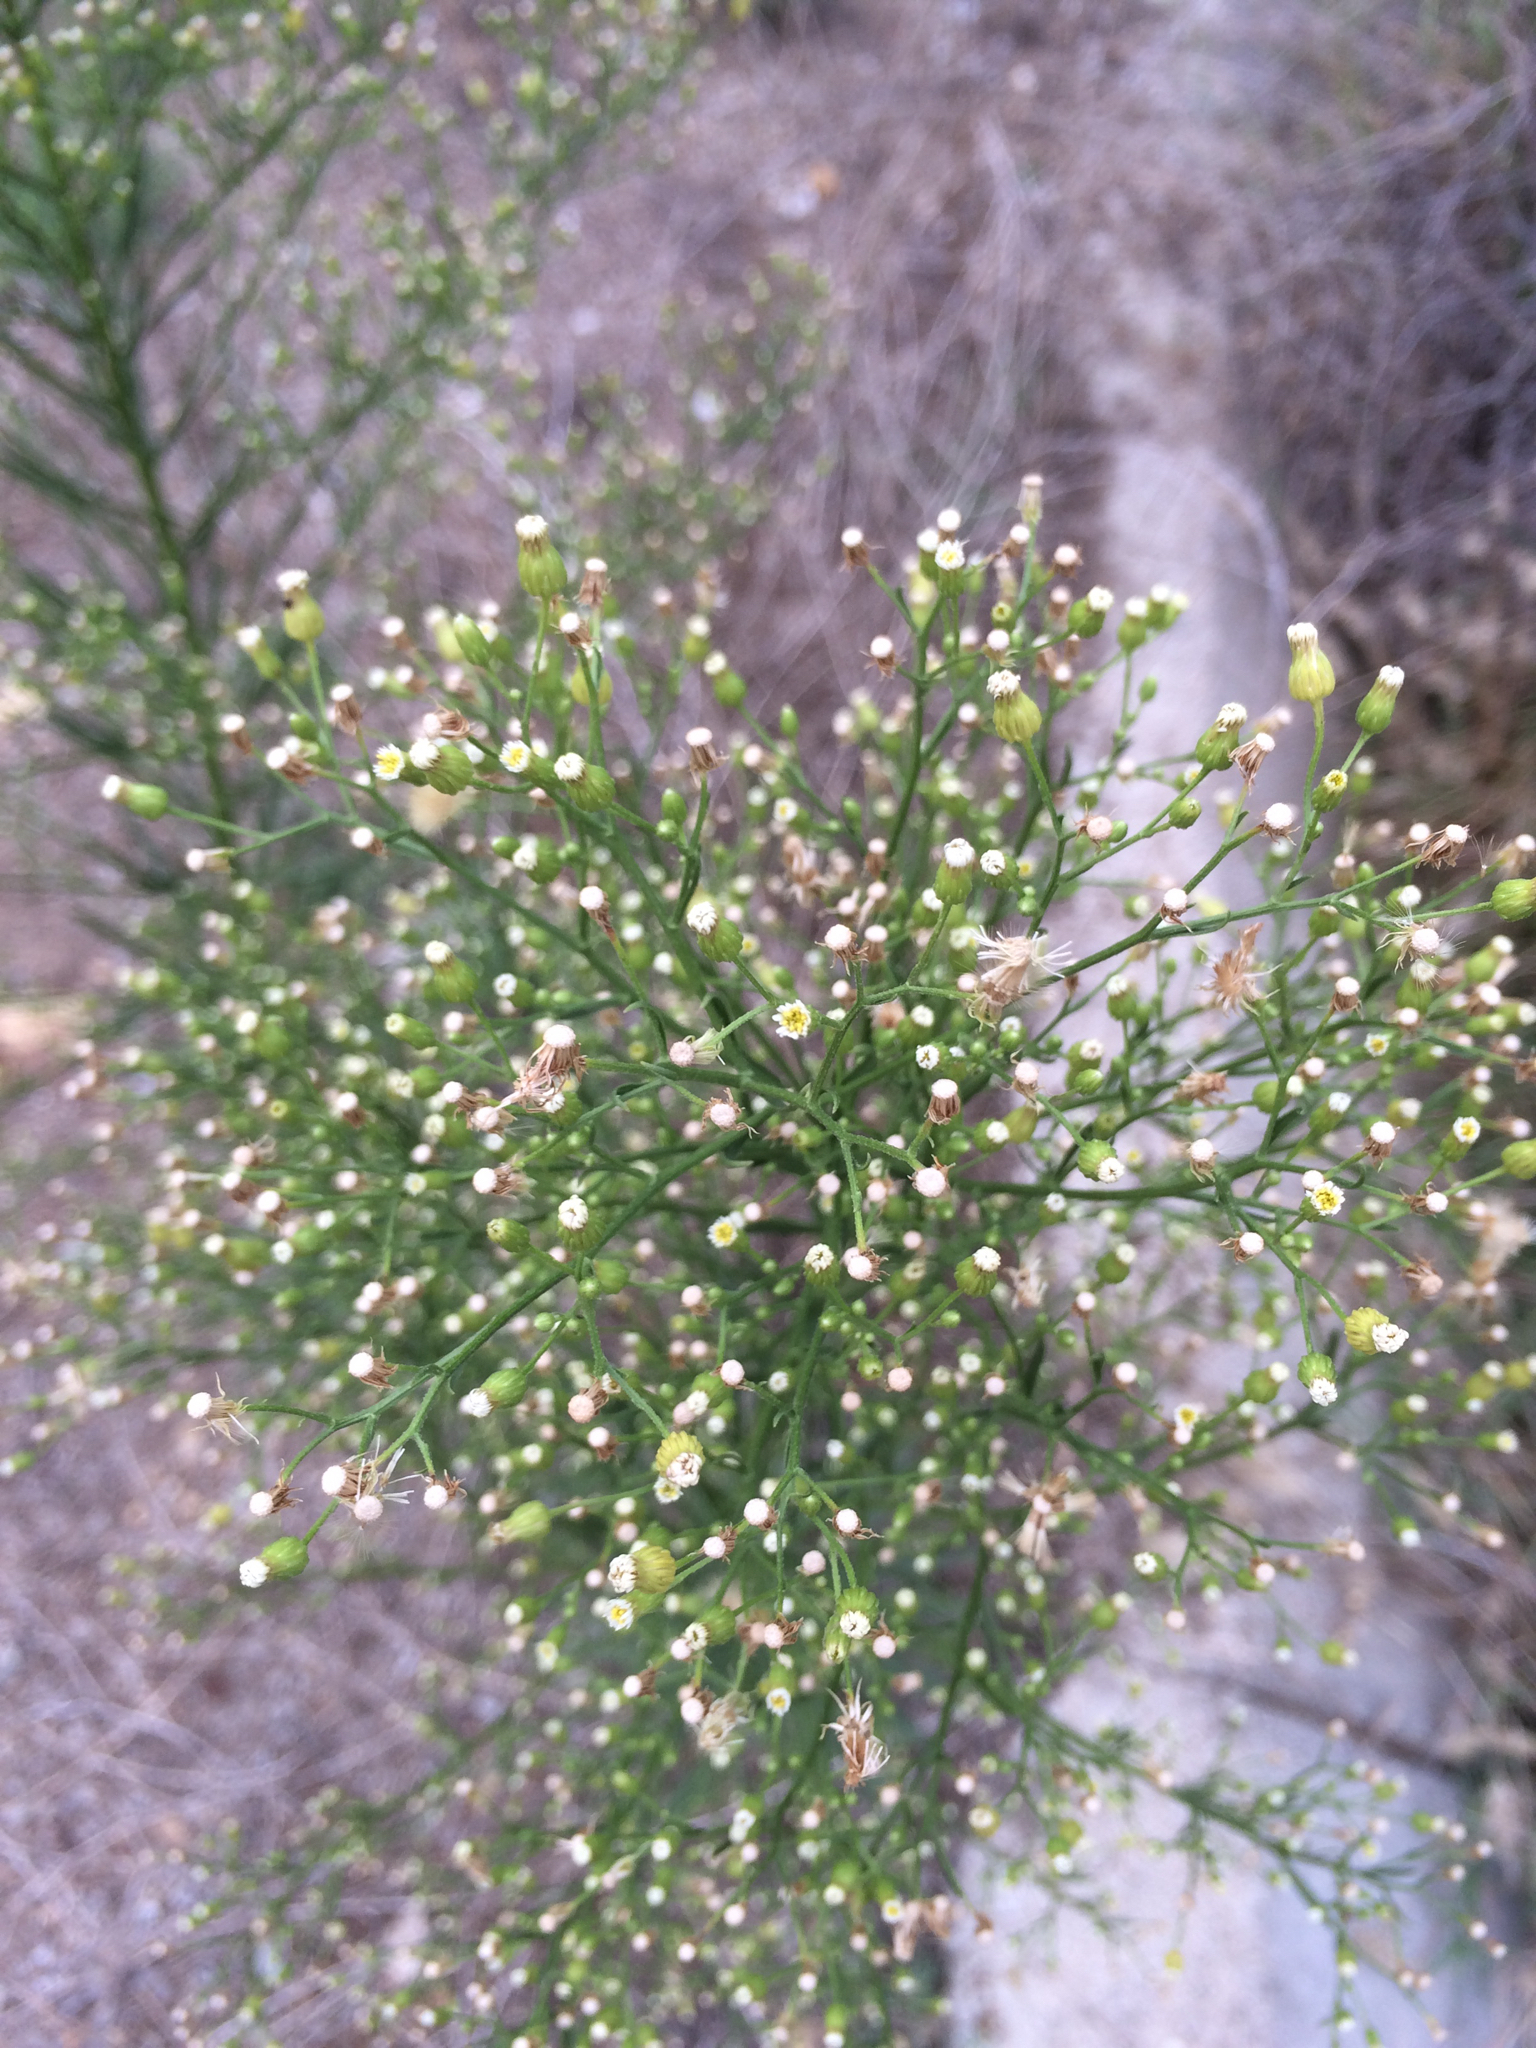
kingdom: Plantae
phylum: Tracheophyta
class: Magnoliopsida
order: Asterales
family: Asteraceae
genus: Erigeron
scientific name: Erigeron canadensis
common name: Canadian fleabane
